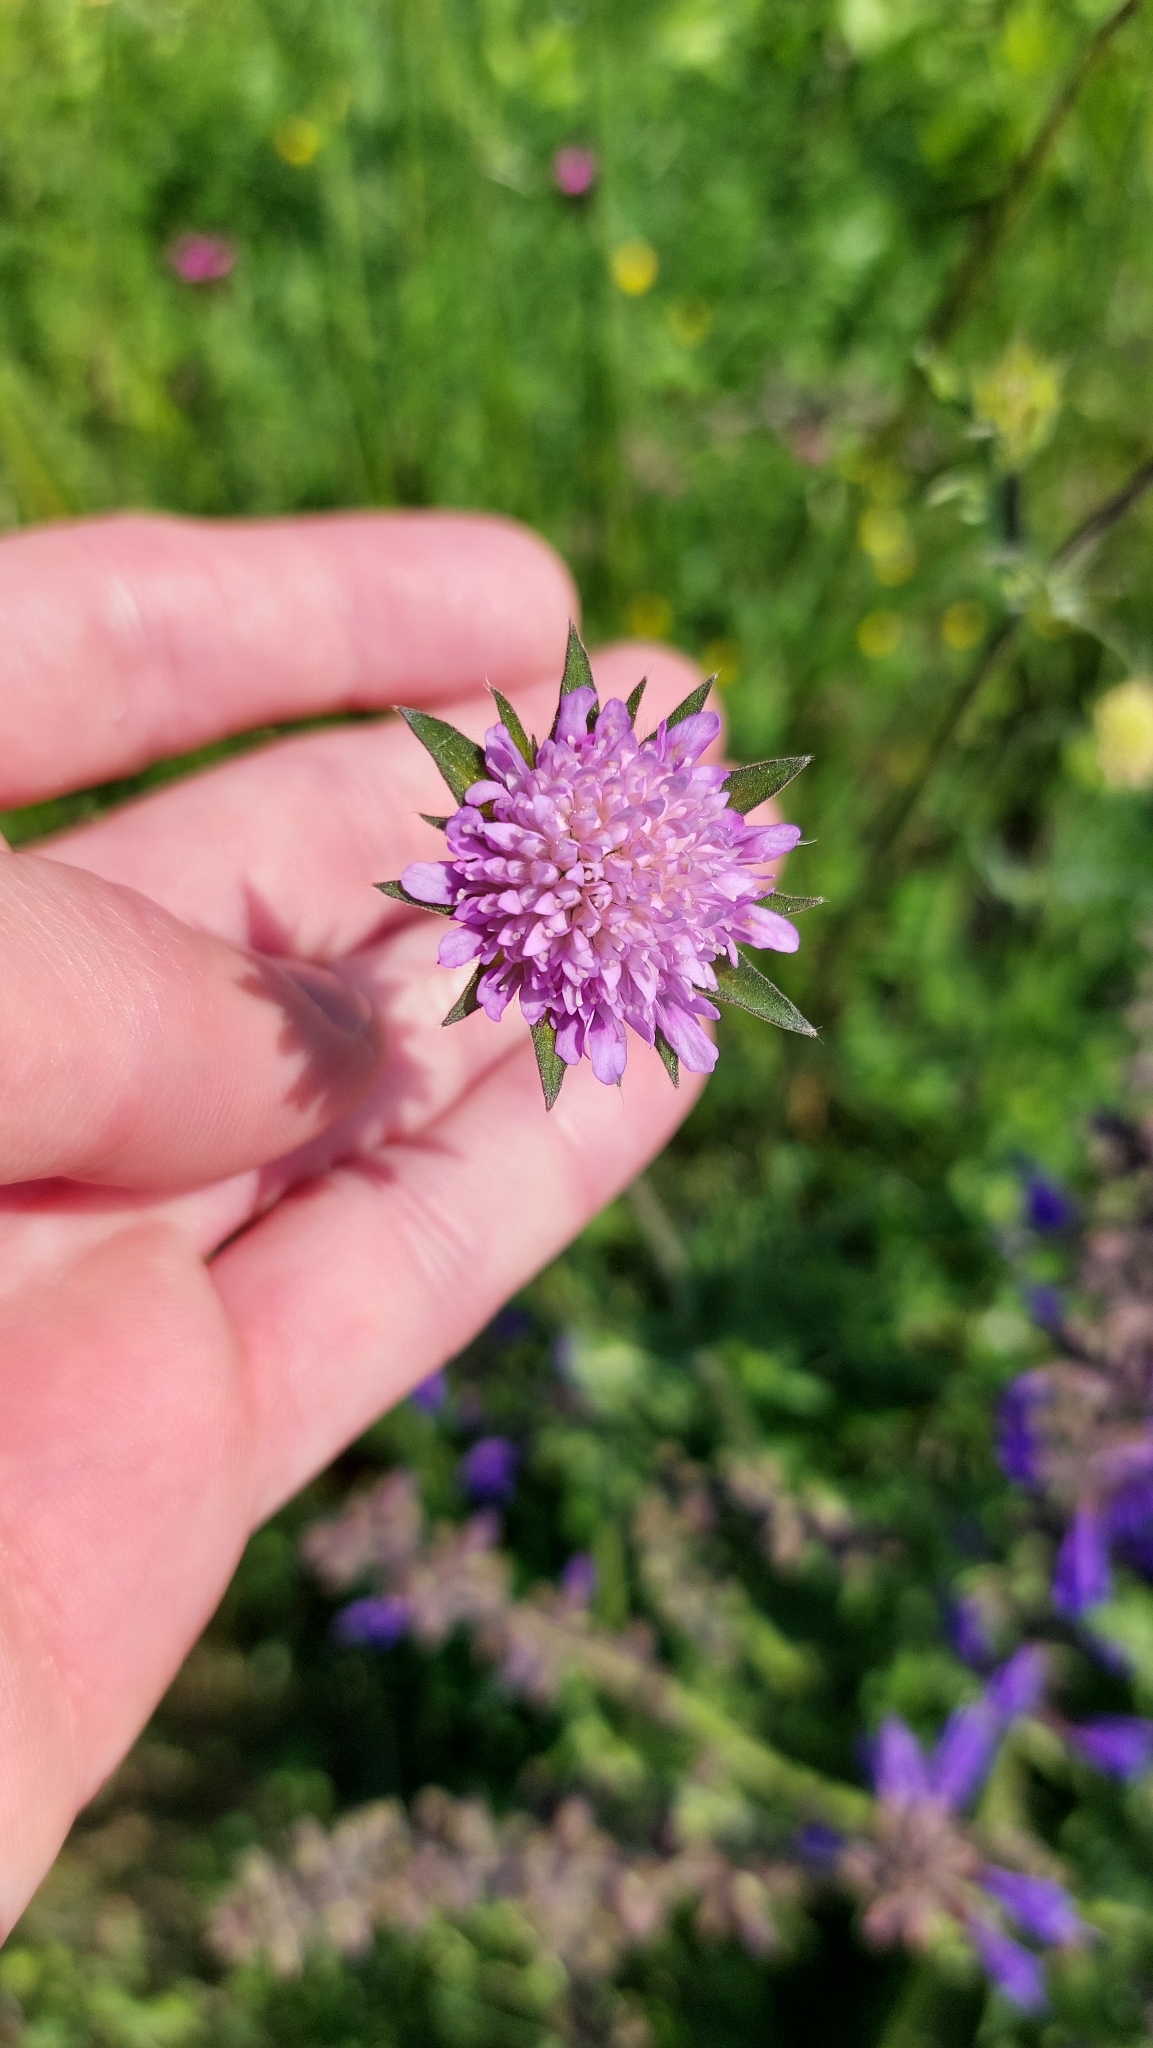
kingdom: Plantae
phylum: Tracheophyta
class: Magnoliopsida
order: Dipsacales
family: Caprifoliaceae
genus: Knautia
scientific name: Knautia arvensis
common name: Field scabiosa
